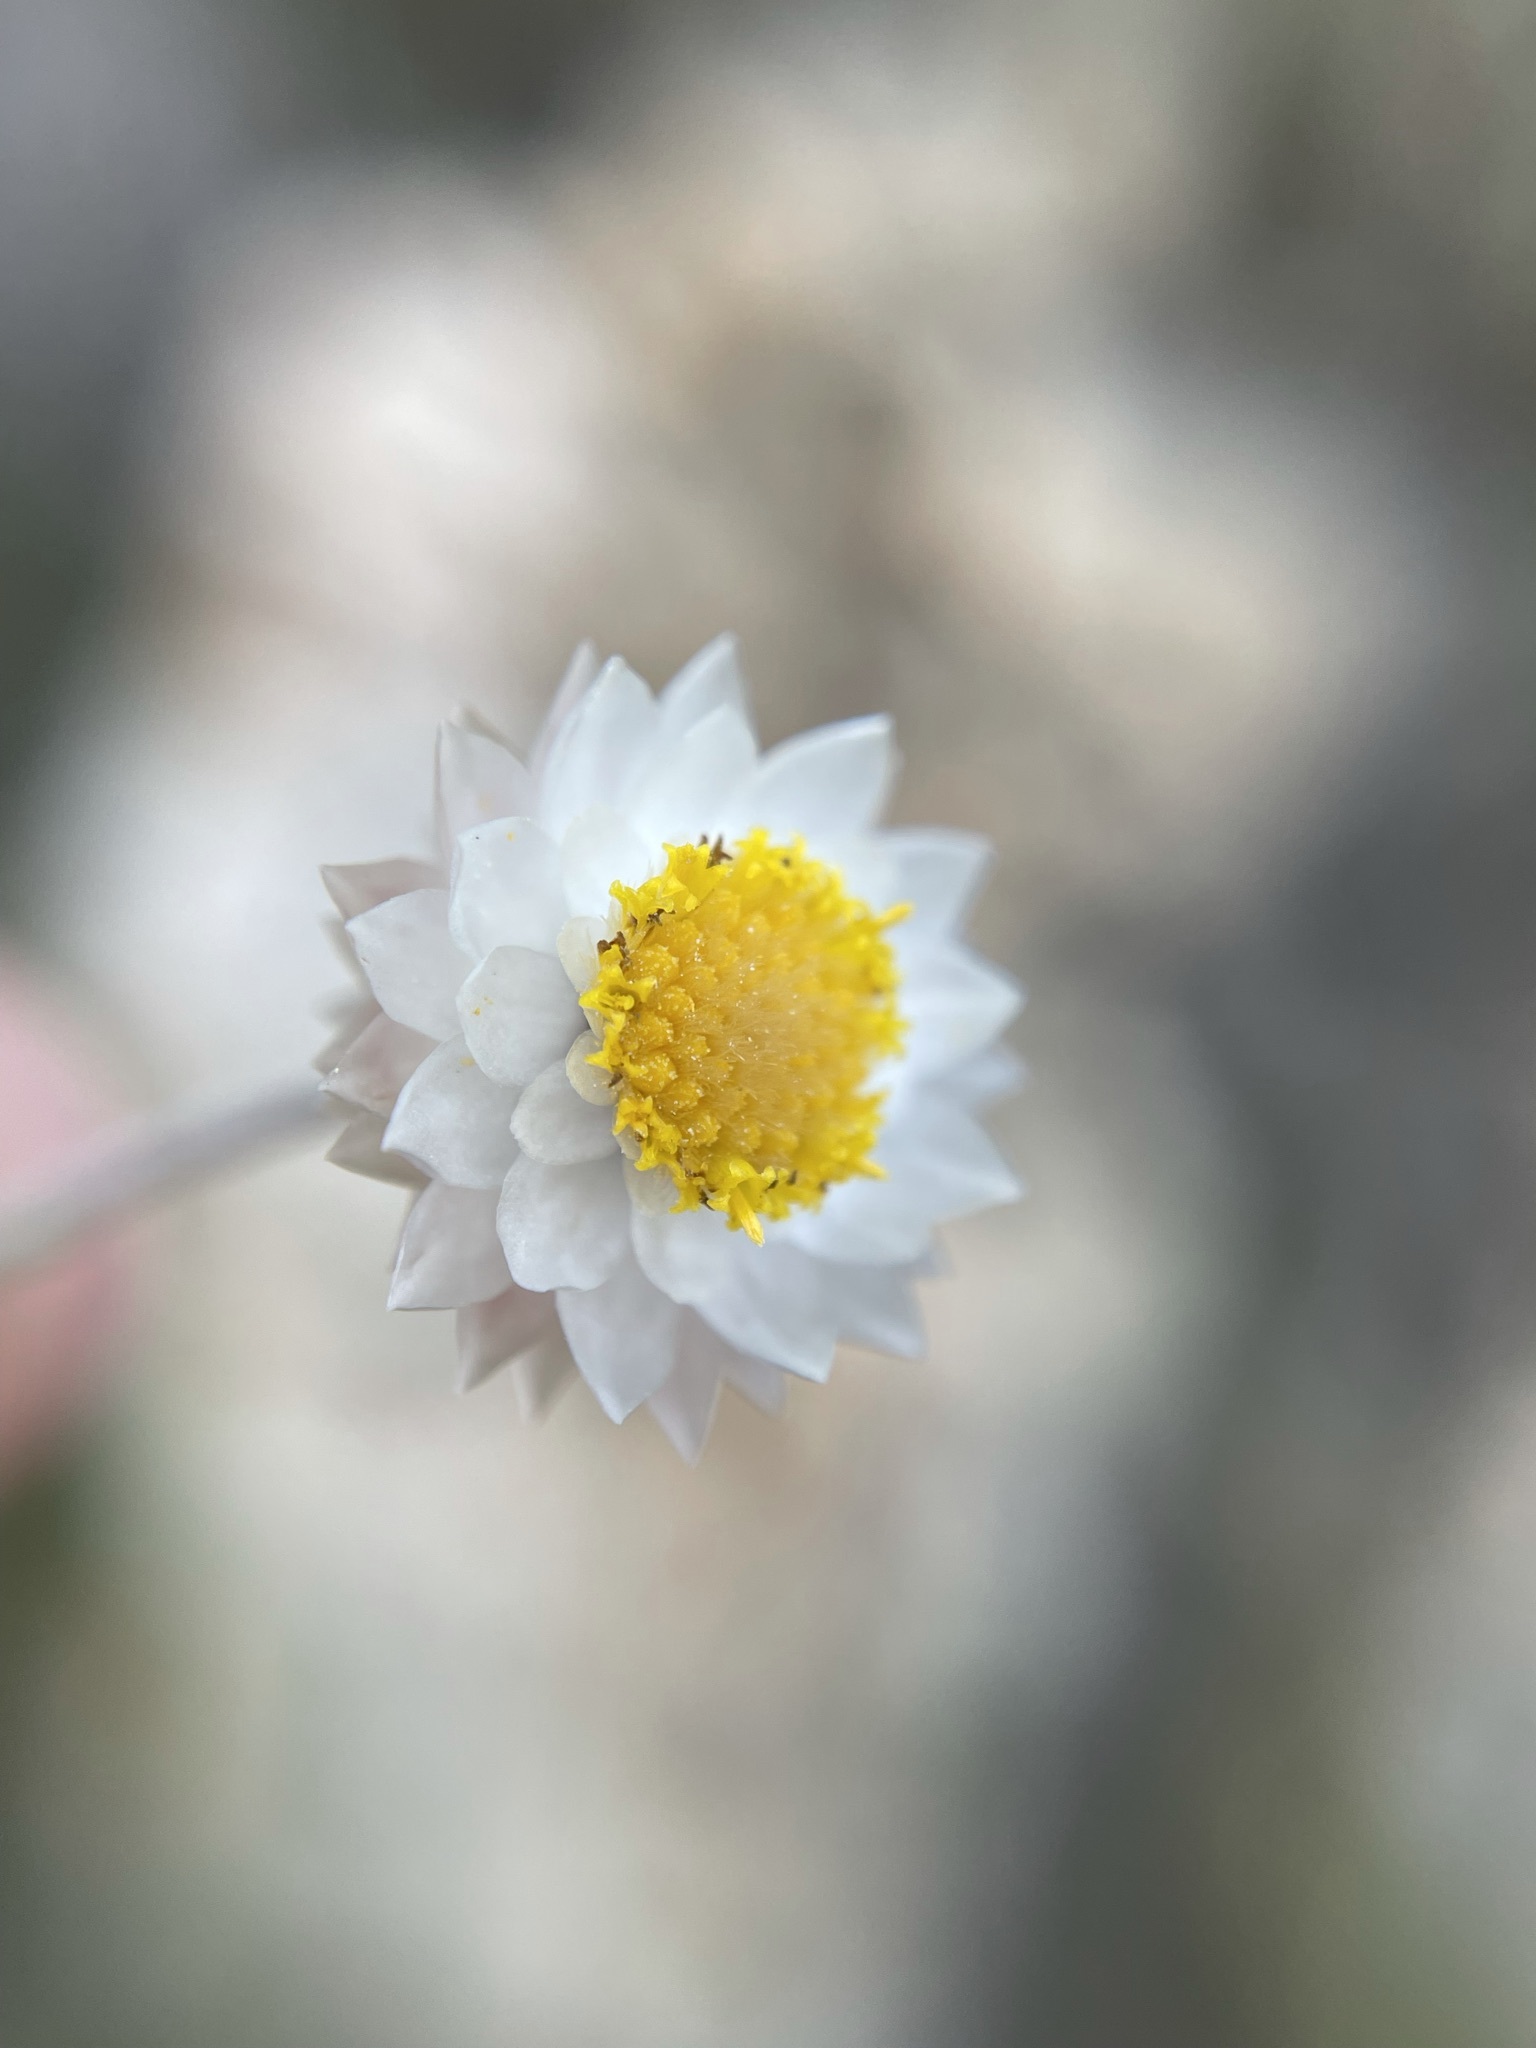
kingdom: Plantae
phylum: Tracheophyta
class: Magnoliopsida
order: Asterales
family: Asteraceae
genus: Achyranthemum
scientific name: Achyranthemum paniculatum
